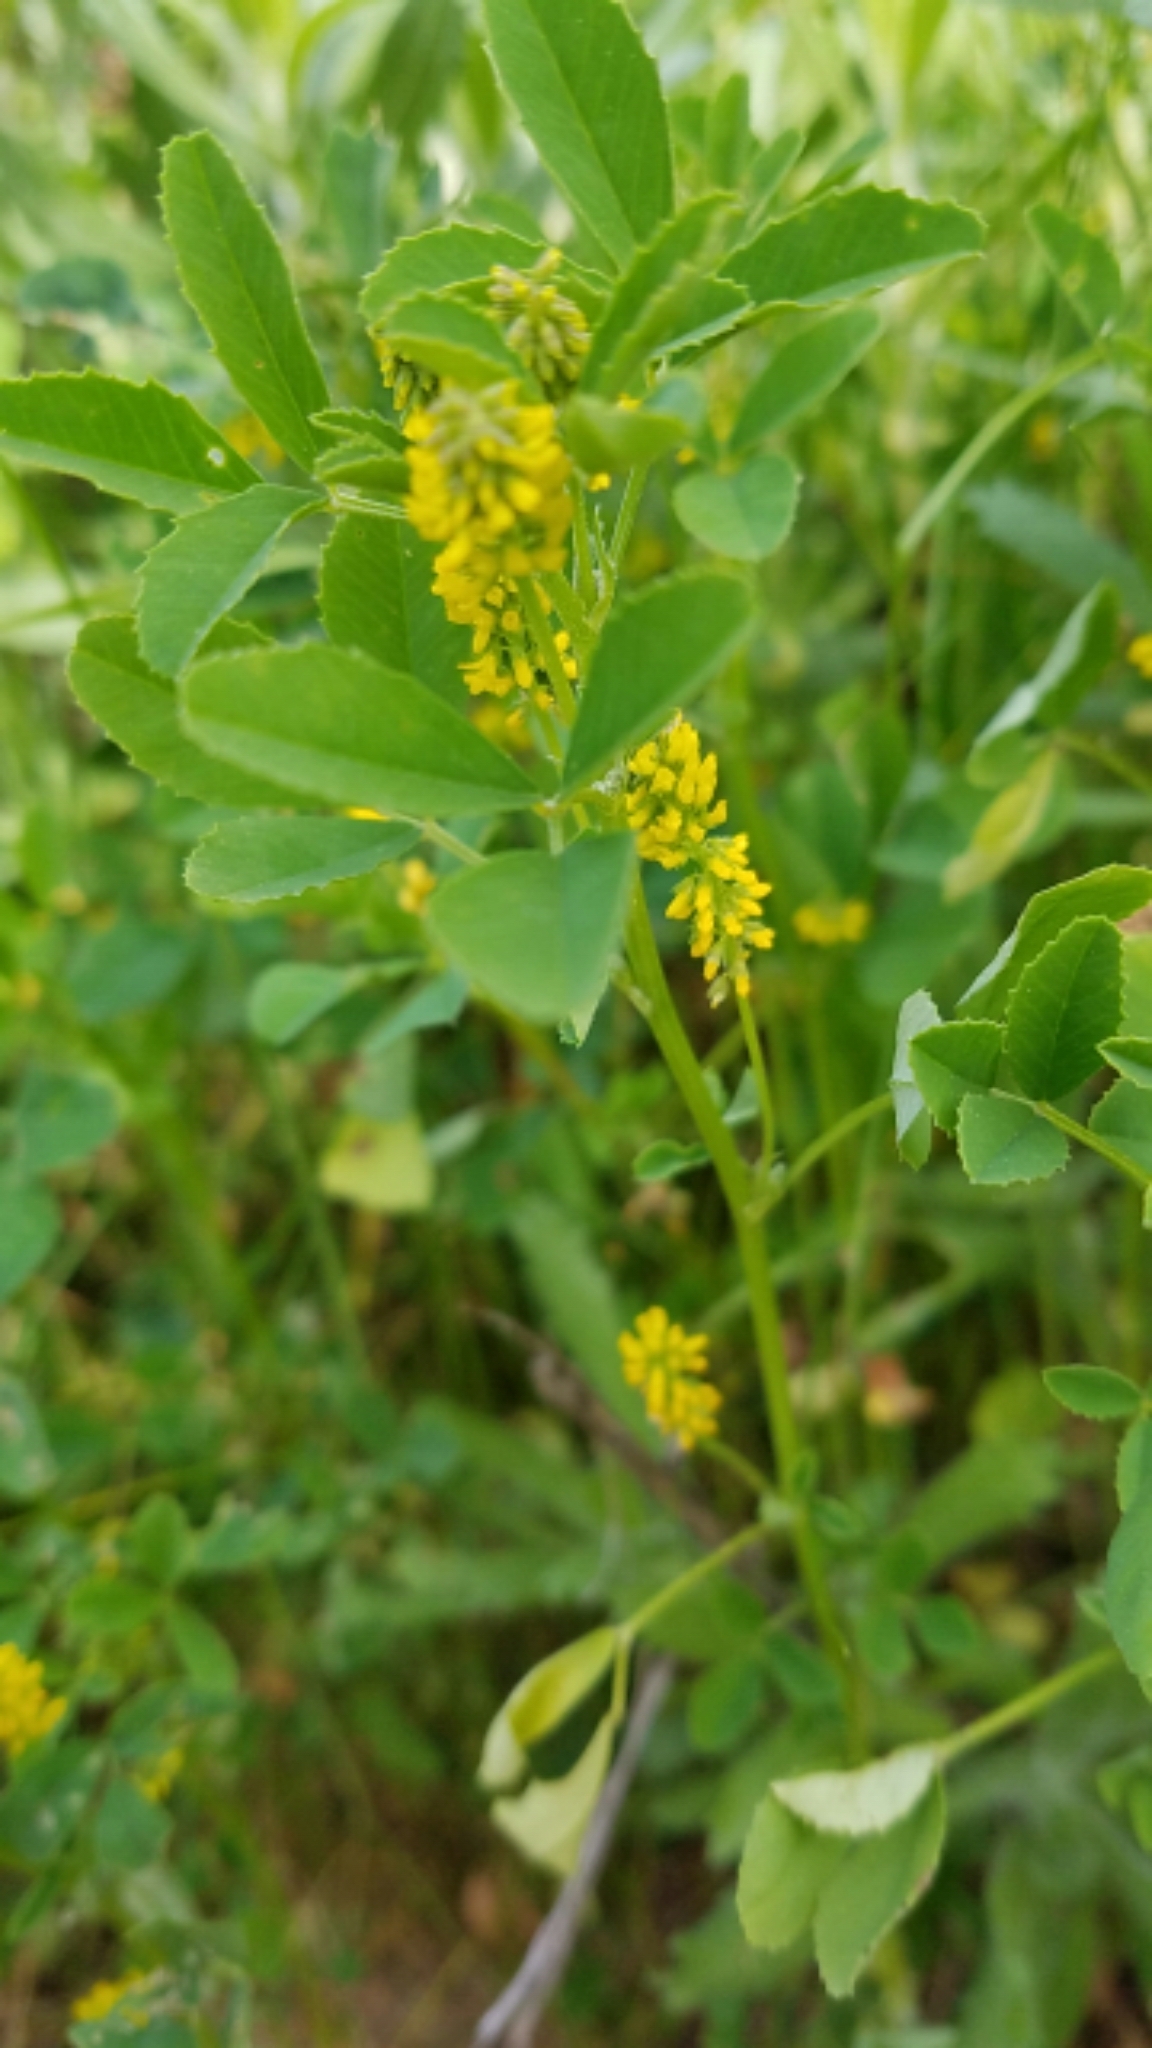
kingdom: Plantae
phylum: Tracheophyta
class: Magnoliopsida
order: Fabales
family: Fabaceae
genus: Melilotus
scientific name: Melilotus indicus
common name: Small melilot
